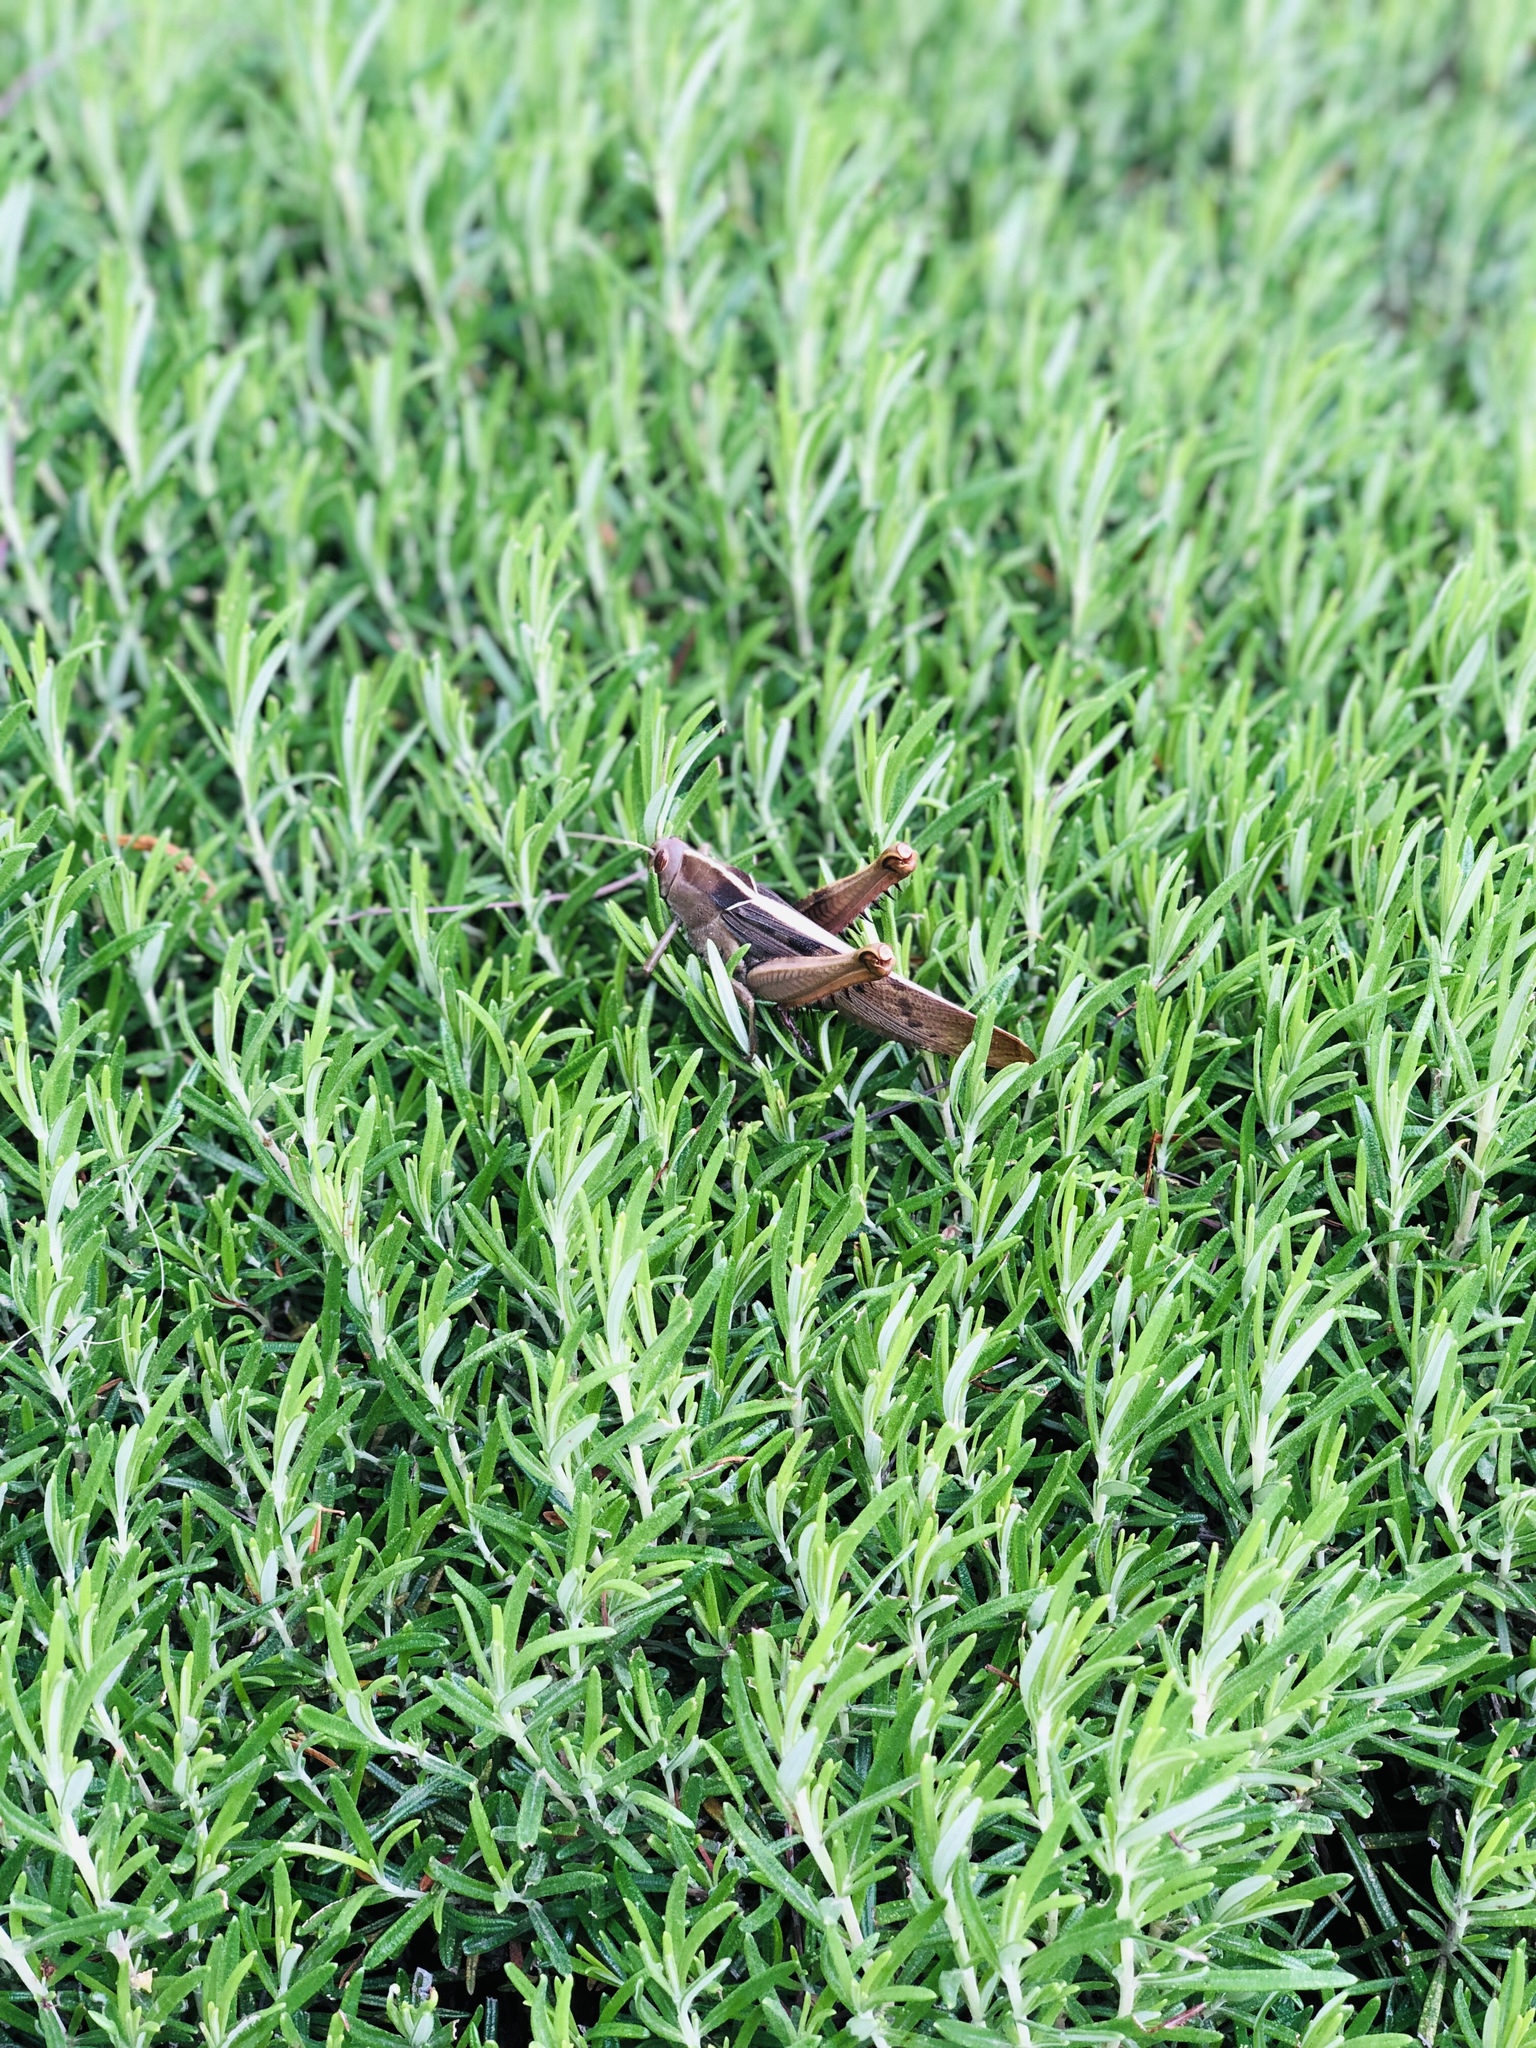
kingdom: Animalia
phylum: Arthropoda
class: Insecta
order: Orthoptera
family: Acrididae
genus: Acanthacris
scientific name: Acanthacris ruficornis
